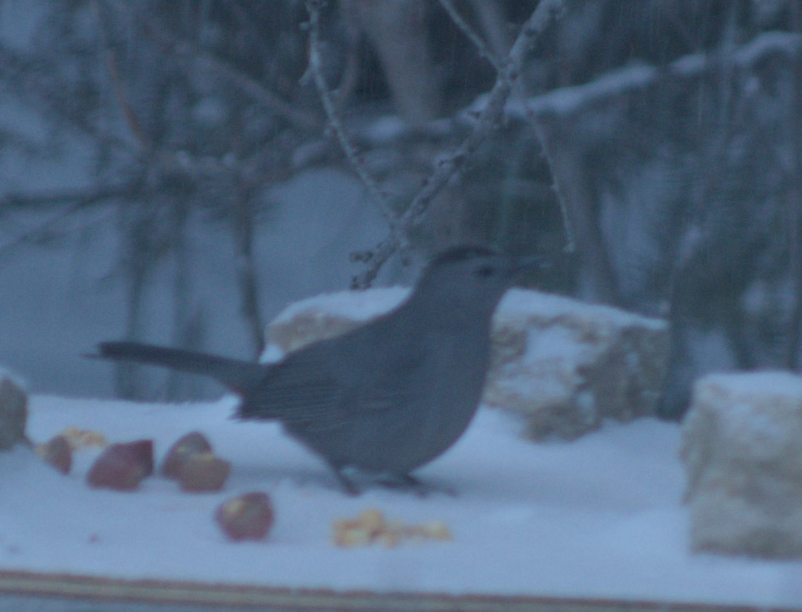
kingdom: Animalia
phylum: Chordata
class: Aves
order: Passeriformes
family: Mimidae
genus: Dumetella
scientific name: Dumetella carolinensis
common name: Gray catbird
